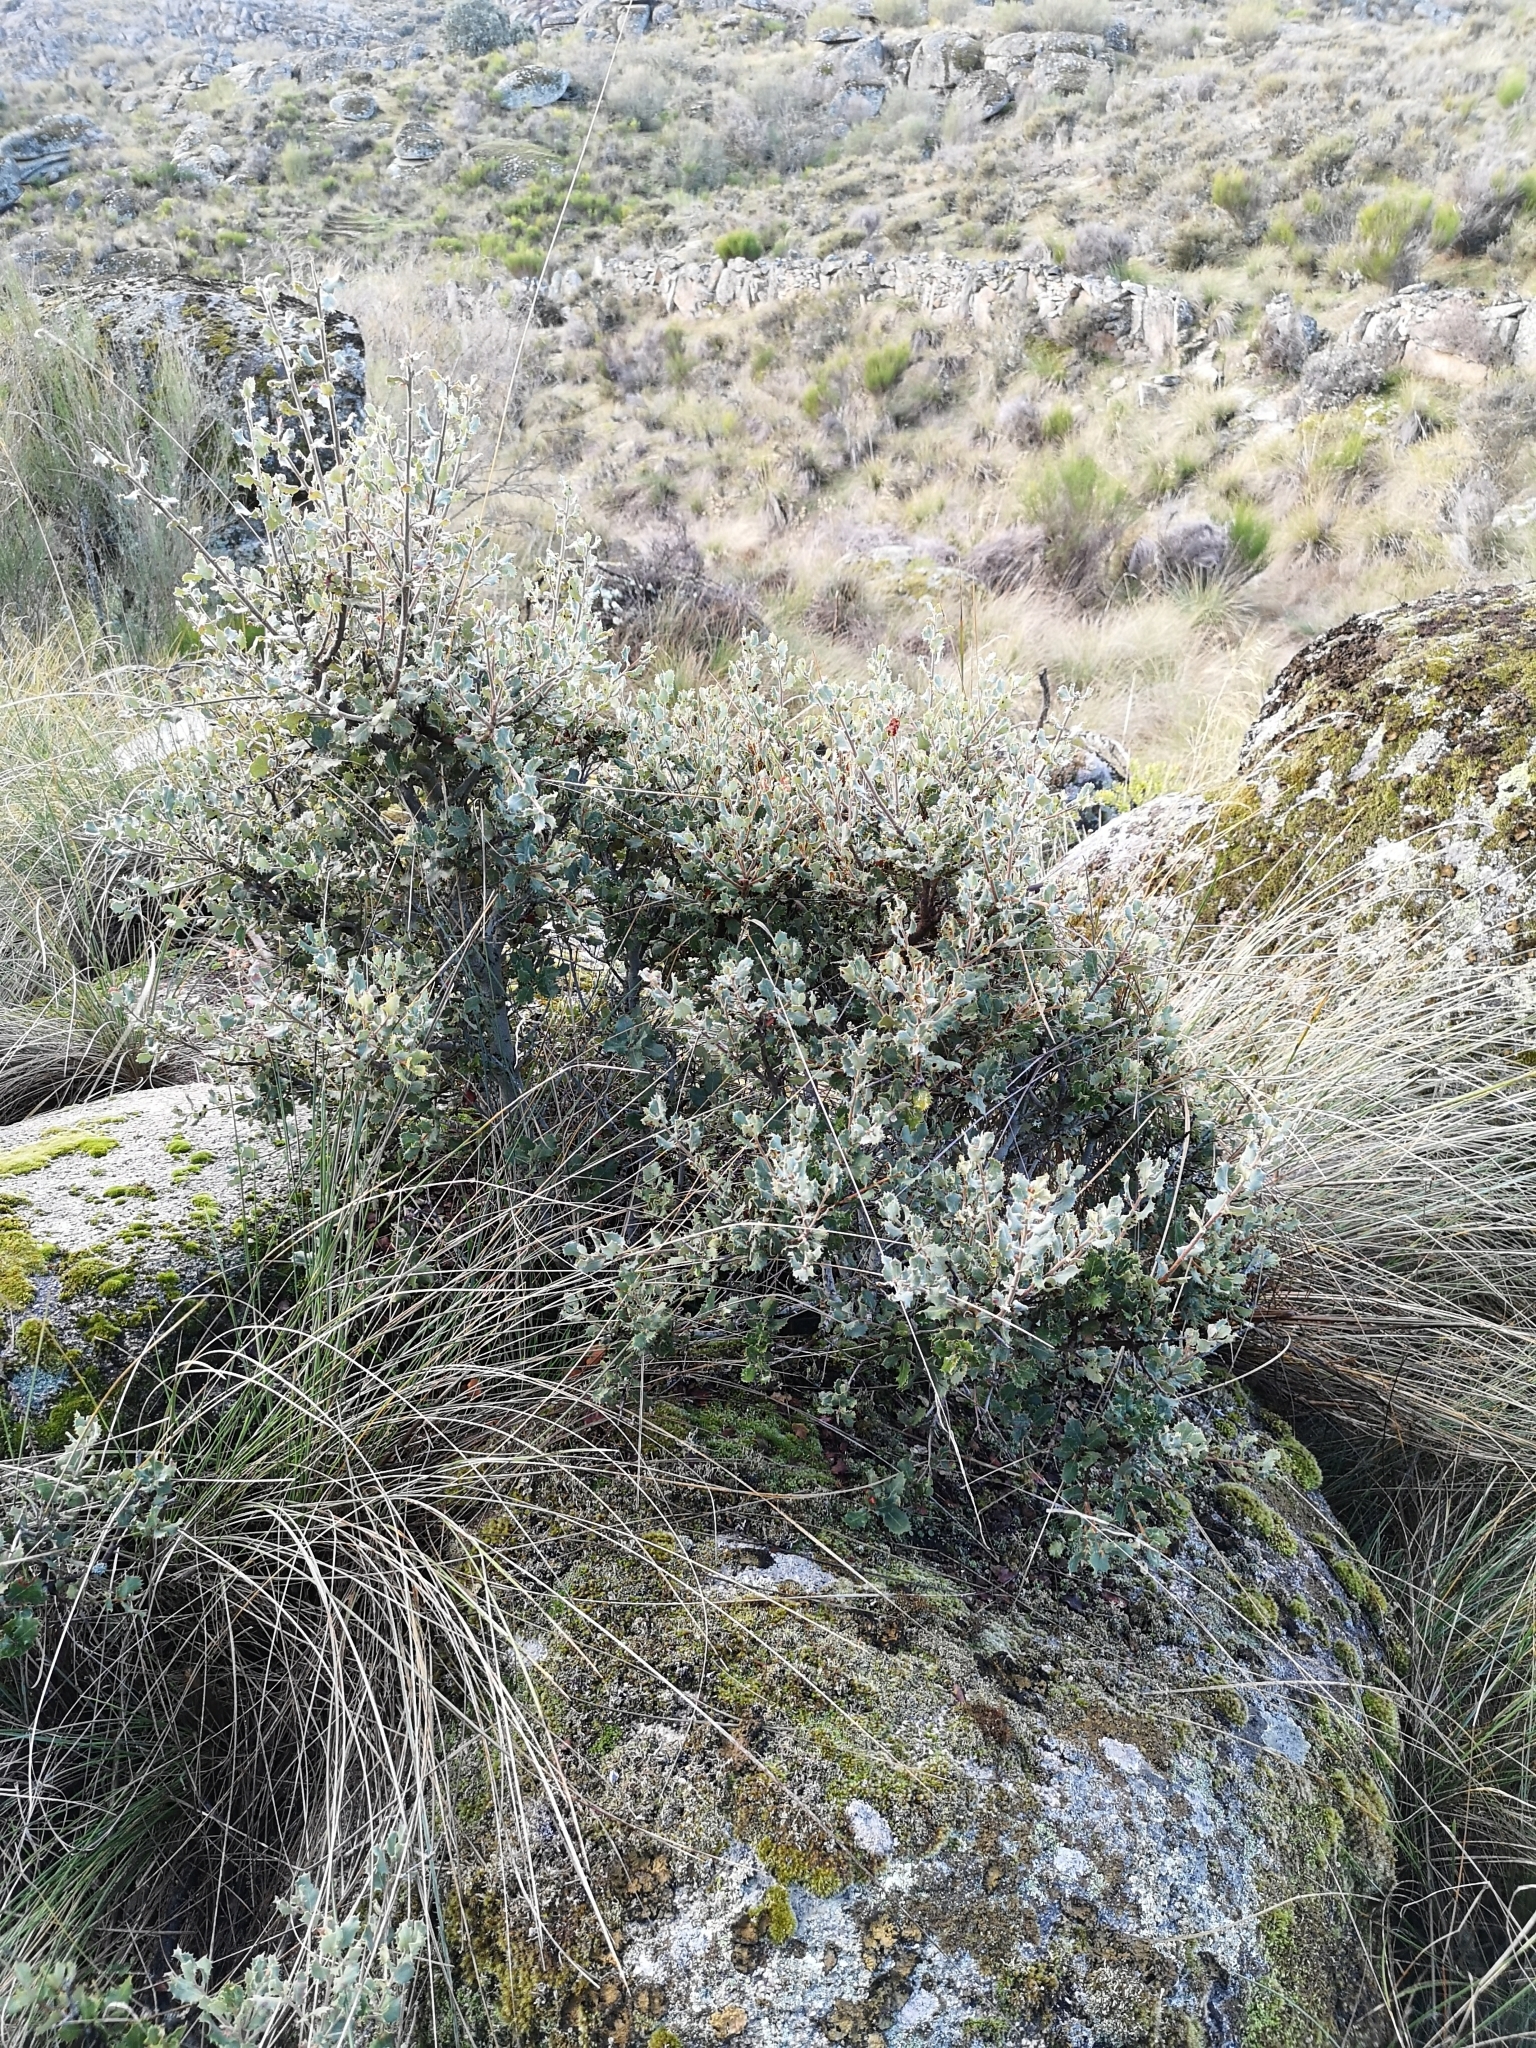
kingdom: Plantae
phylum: Tracheophyta
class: Magnoliopsida
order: Fagales
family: Fagaceae
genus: Quercus
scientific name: Quercus rotundifolia
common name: Holm oak
